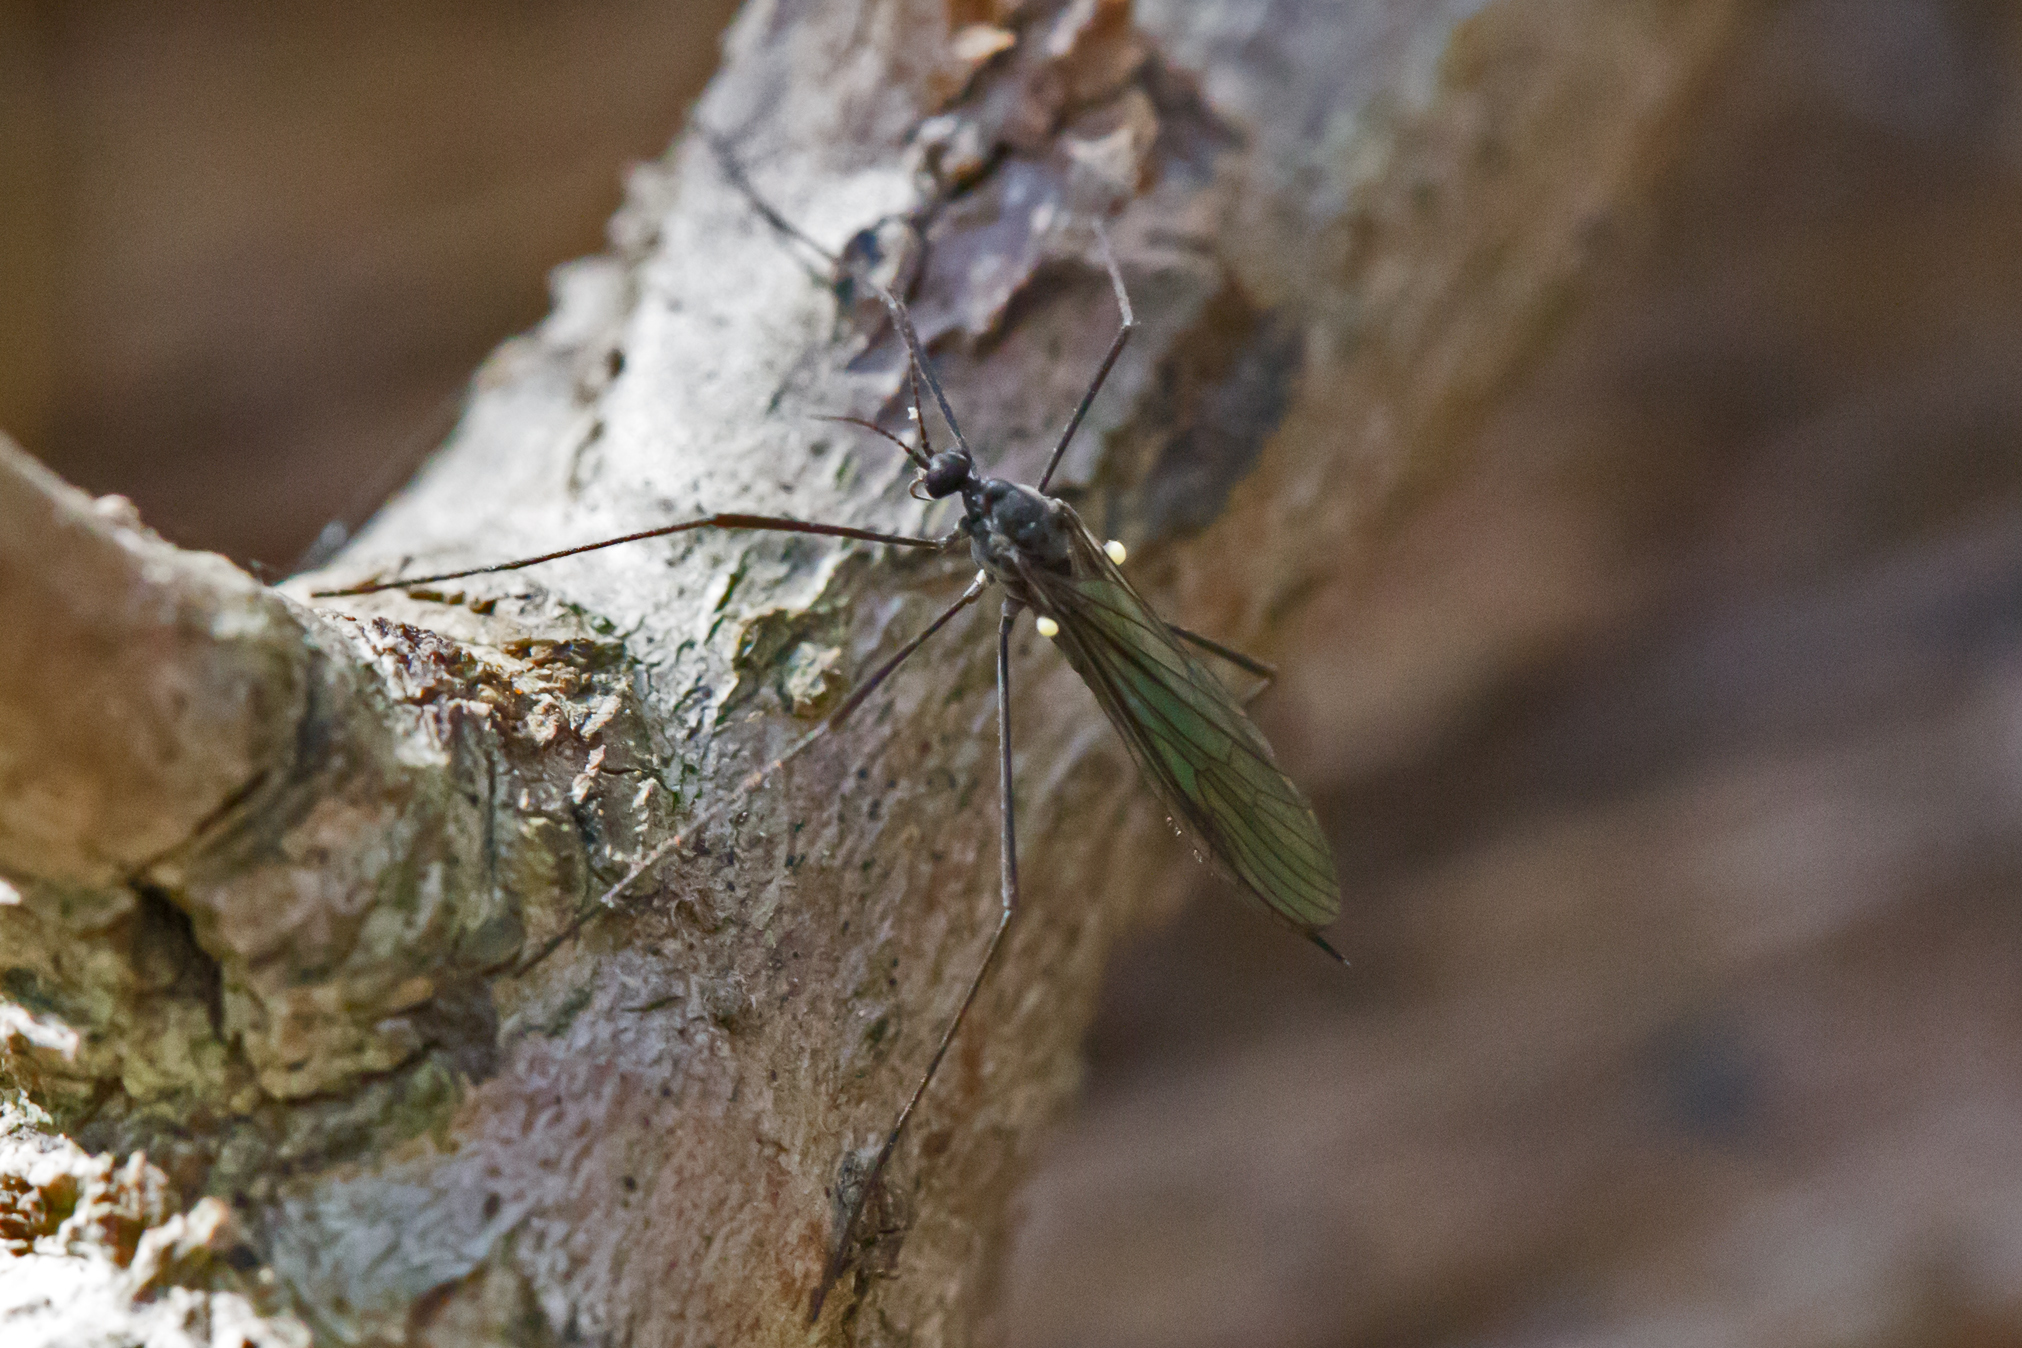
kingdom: Animalia
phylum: Arthropoda
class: Insecta
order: Diptera
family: Limoniidae
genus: Gnophomyia
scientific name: Gnophomyia tristissima
